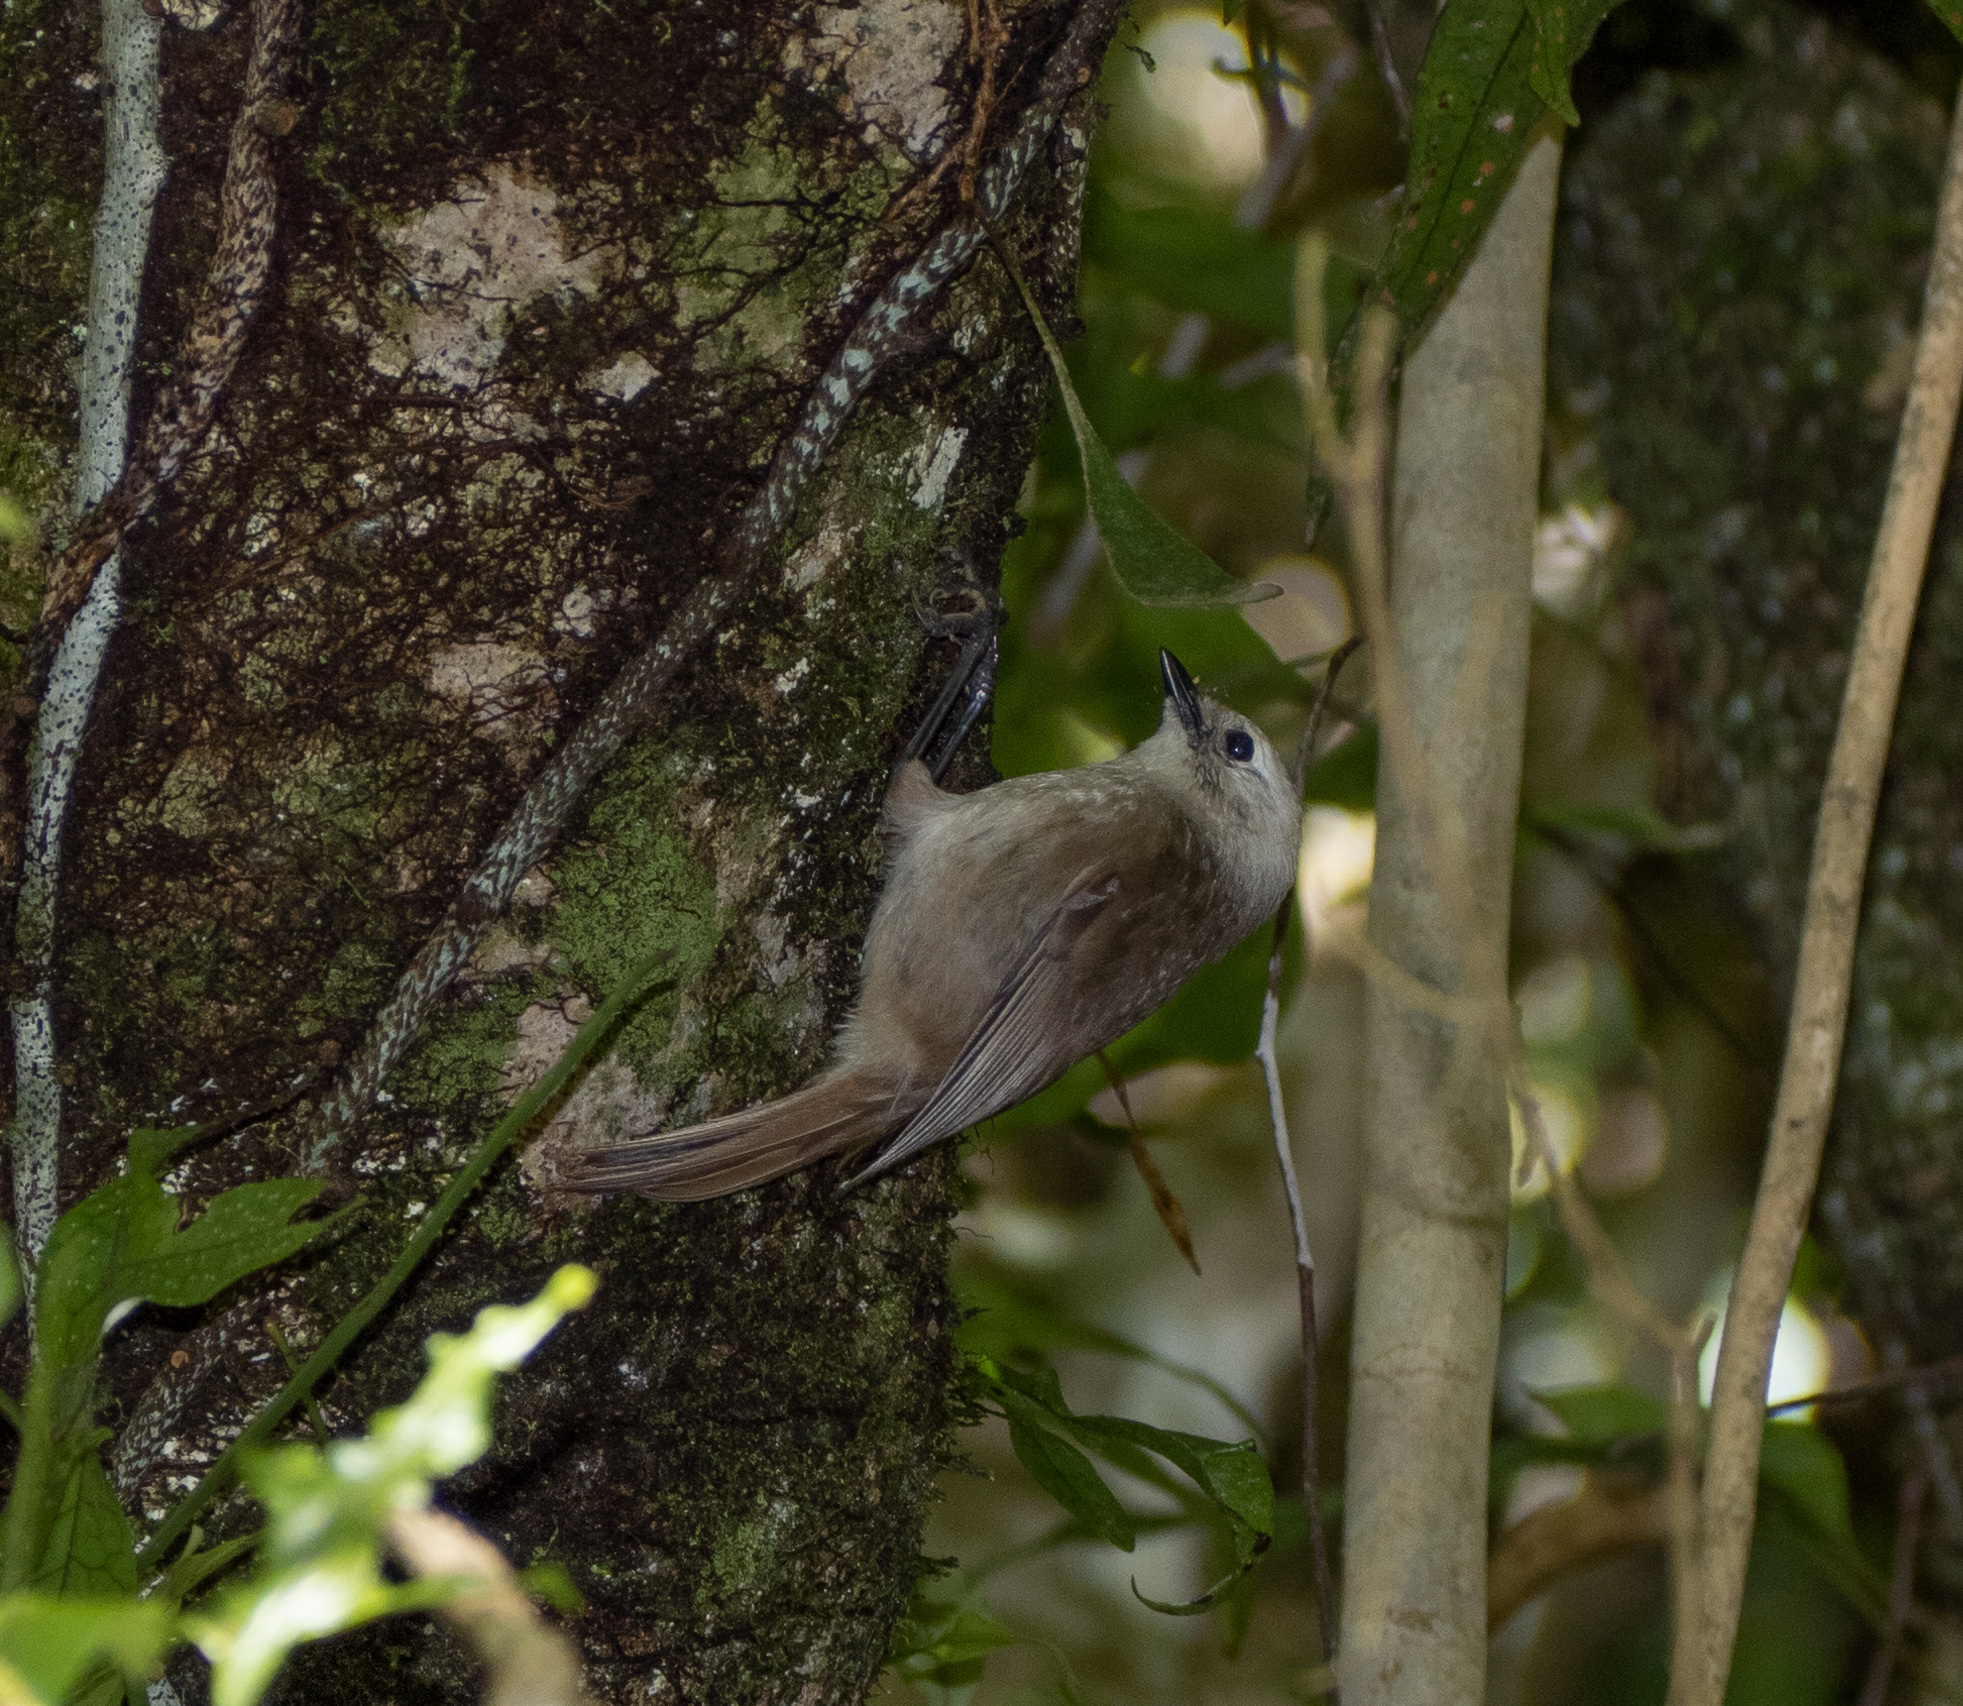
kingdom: Animalia
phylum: Chordata
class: Aves
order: Passeriformes
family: Acanthizidae
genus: Mohoua
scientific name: Mohoua albicilla
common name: Whitehead
